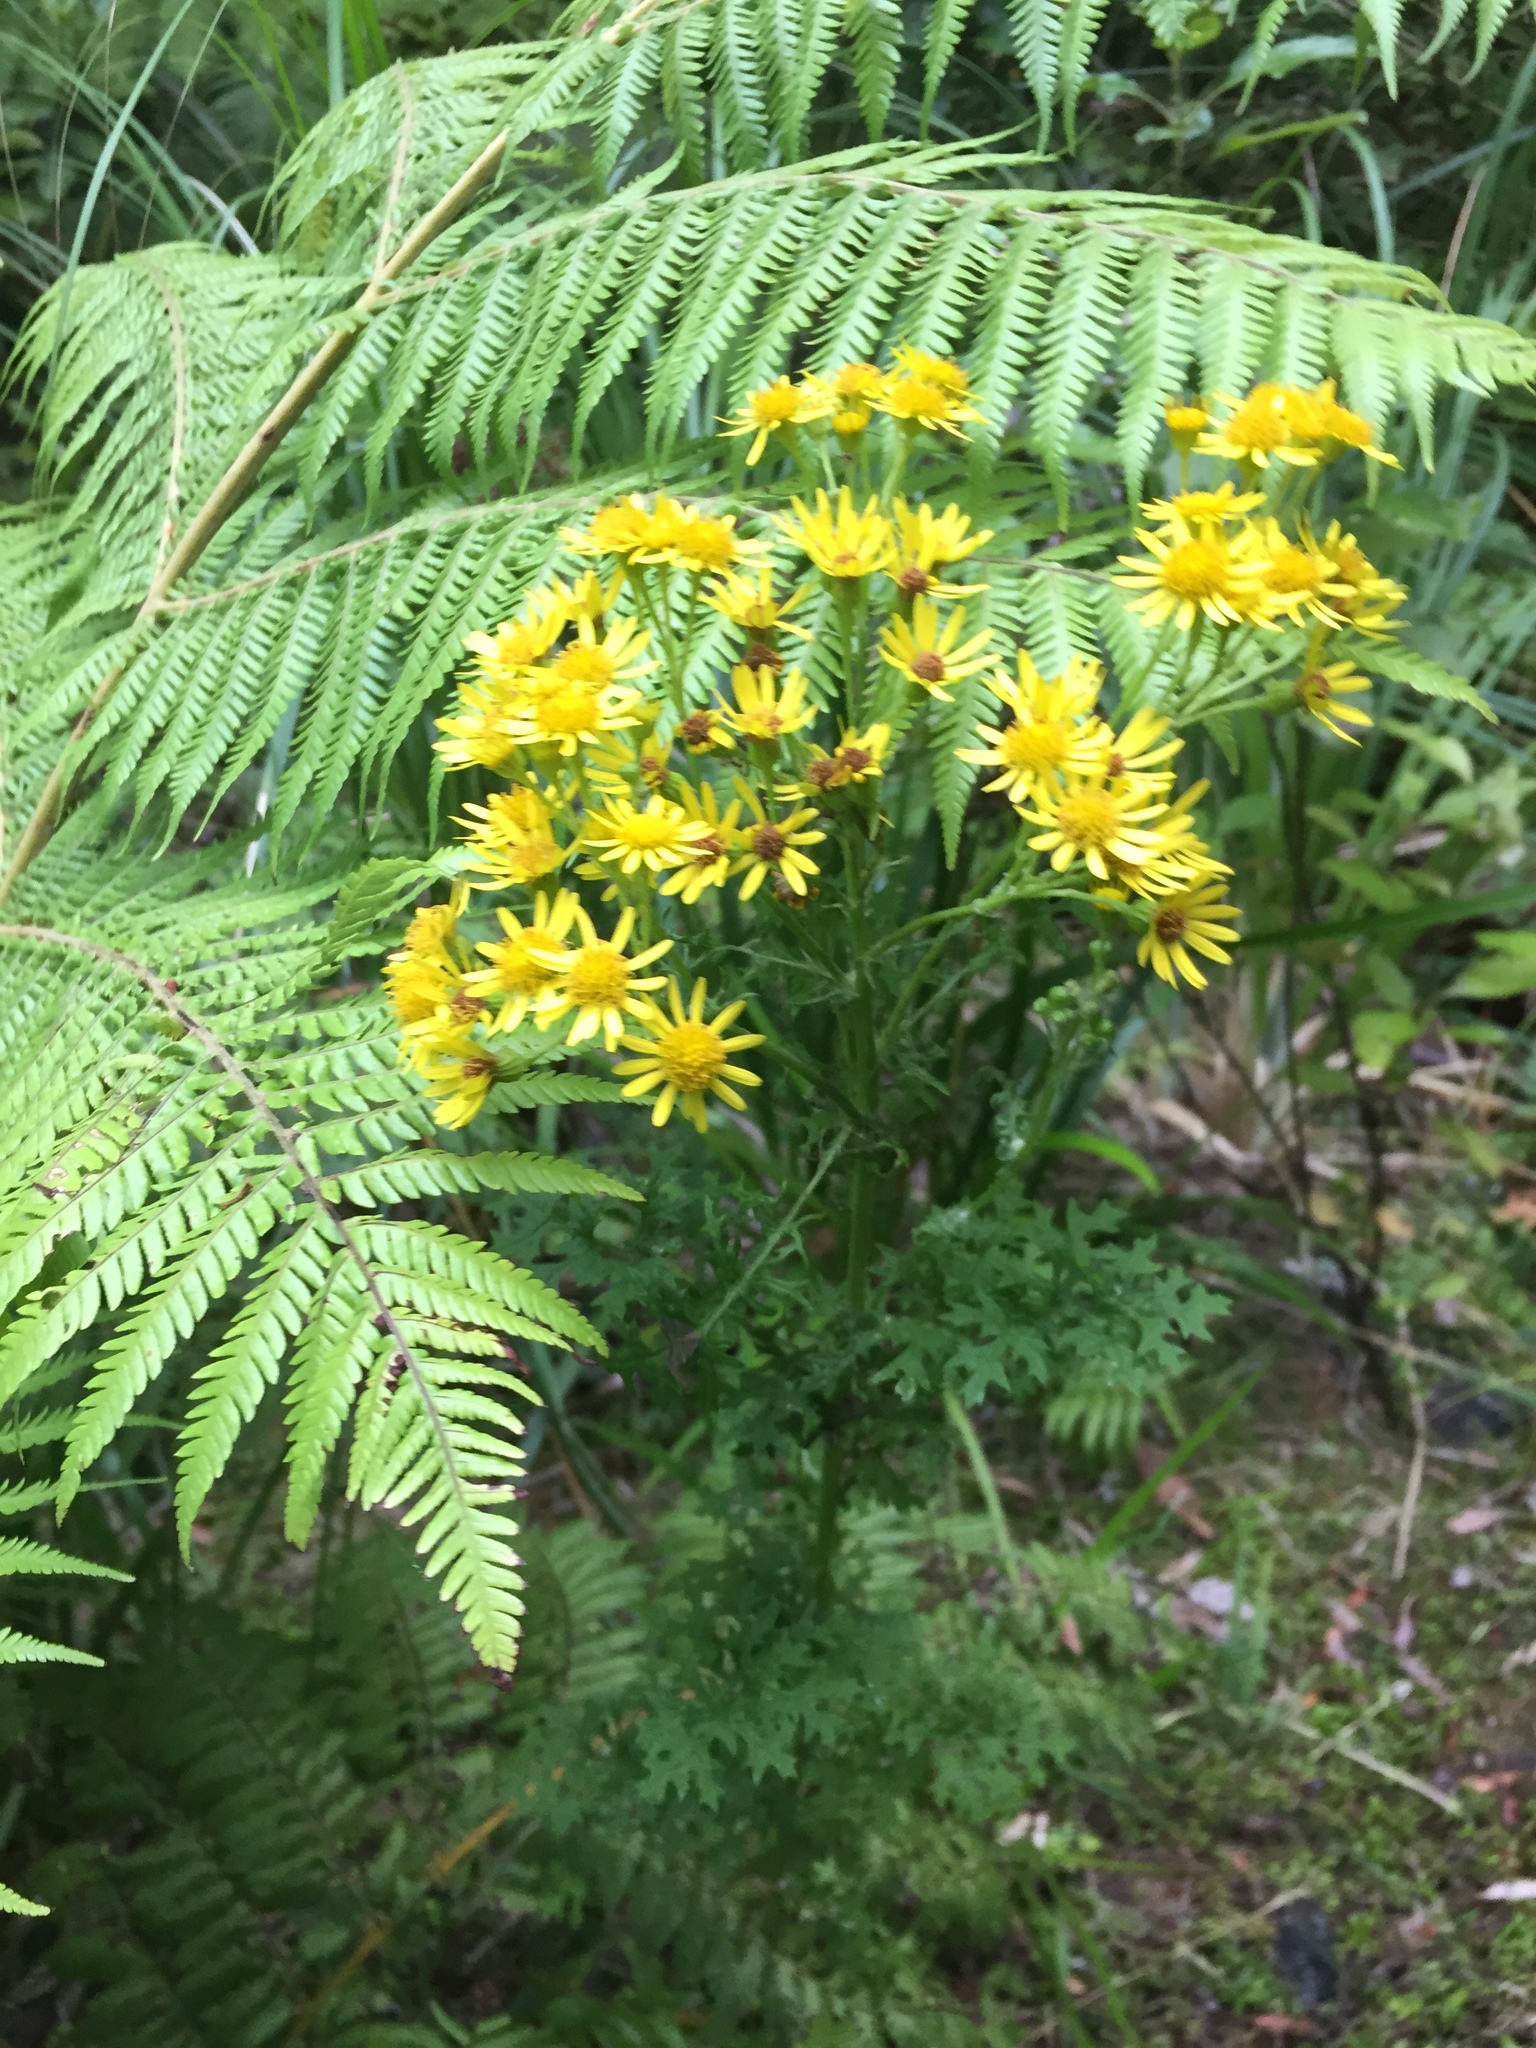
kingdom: Plantae
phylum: Tracheophyta
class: Magnoliopsida
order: Asterales
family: Asteraceae
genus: Jacobaea
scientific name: Jacobaea vulgaris
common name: Stinking willie
